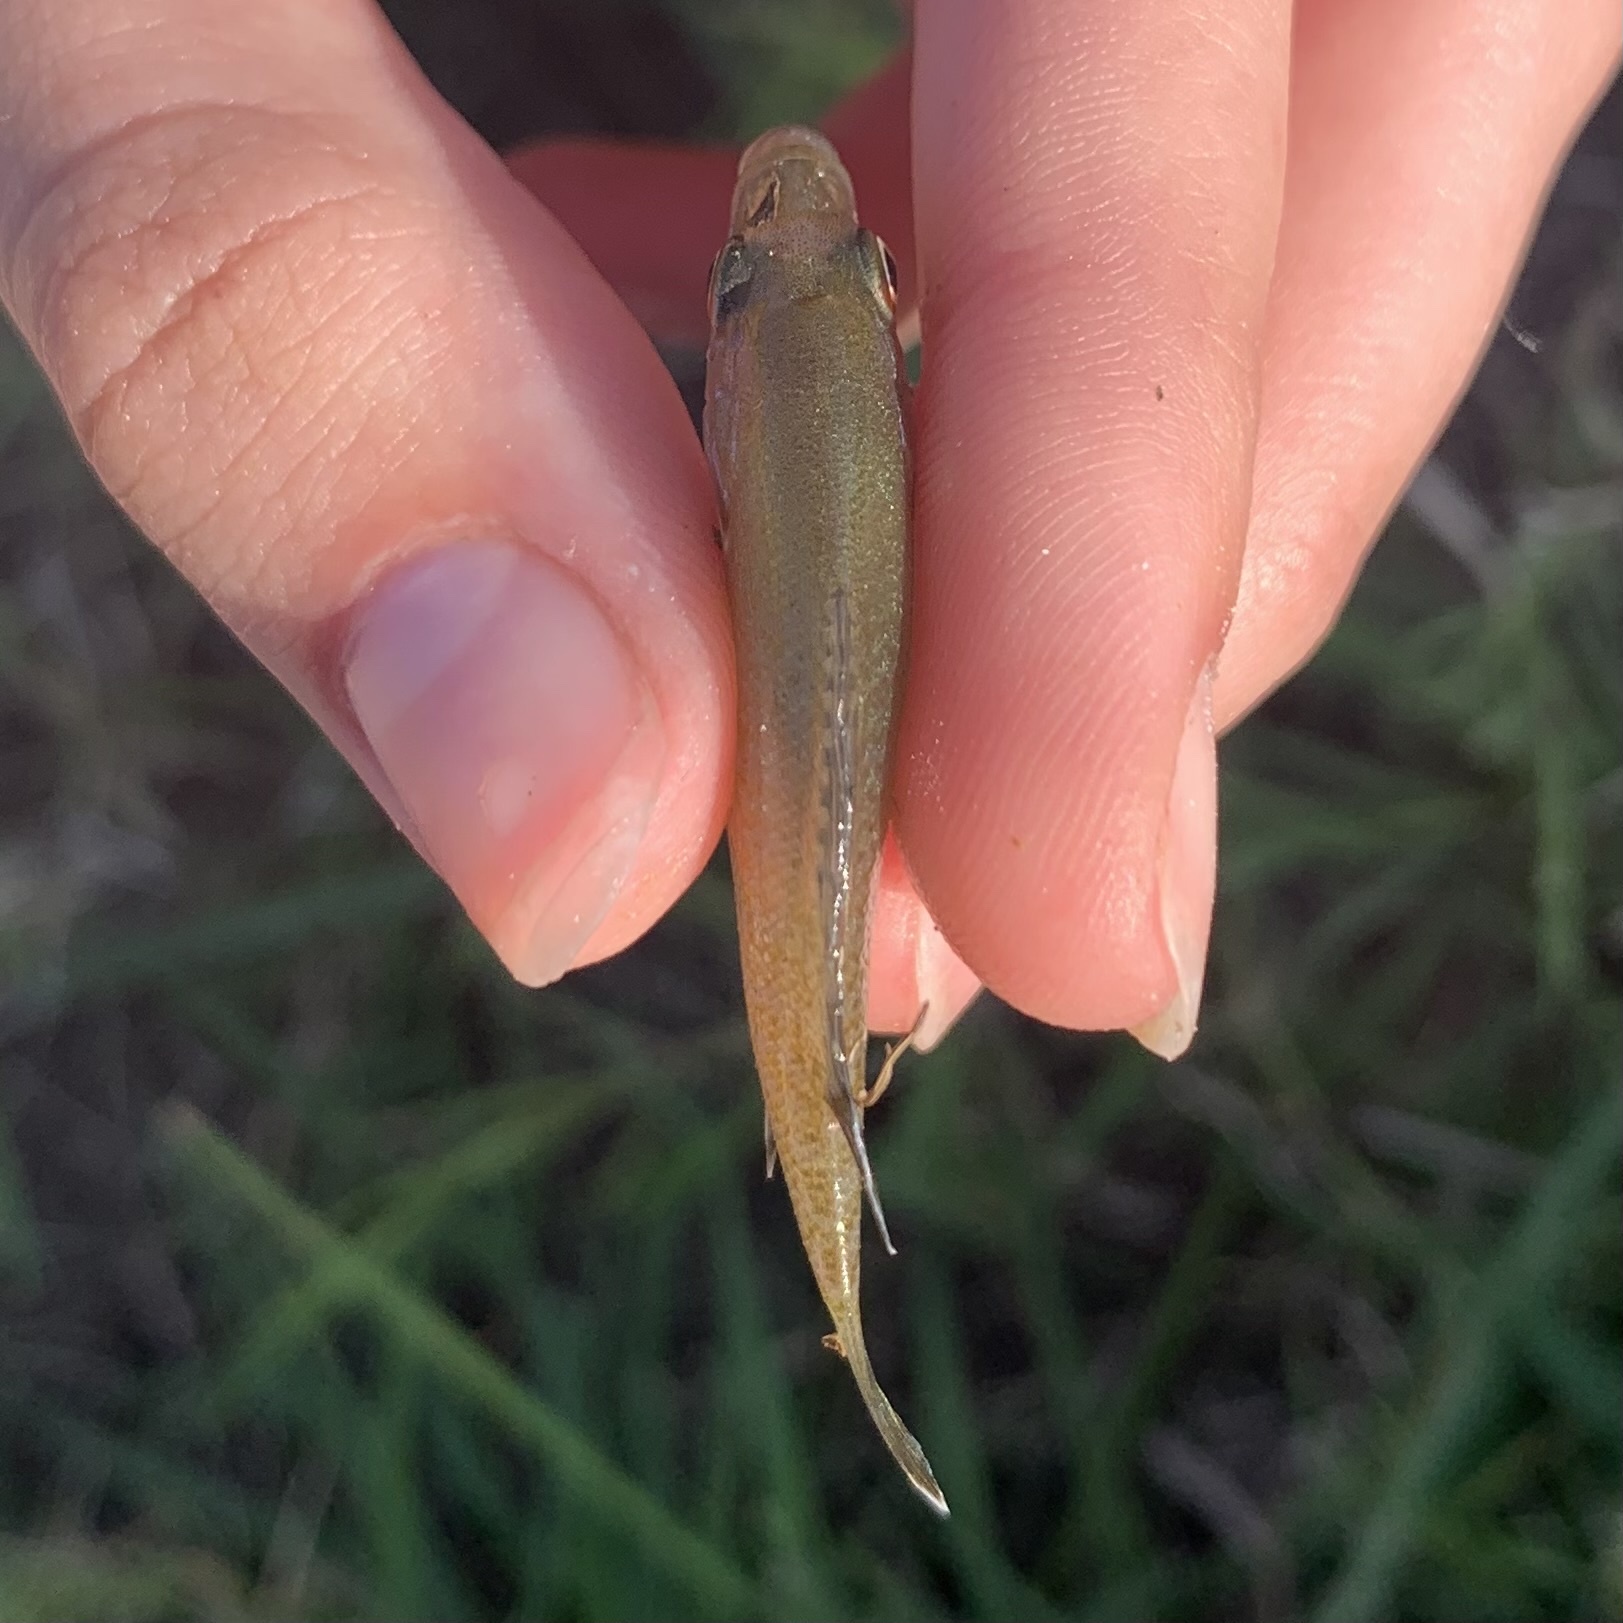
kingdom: Animalia
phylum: Chordata
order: Perciformes
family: Centrarchidae
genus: Lepomis
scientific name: Lepomis
